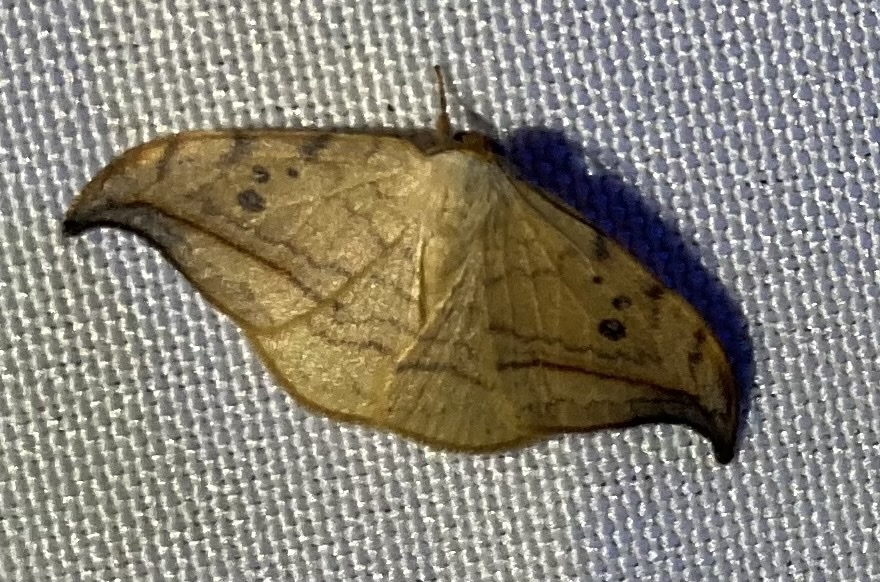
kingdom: Animalia
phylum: Arthropoda
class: Insecta
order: Lepidoptera
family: Drepanidae
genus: Drepana
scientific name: Drepana arcuata
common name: Arched hooktip moth
